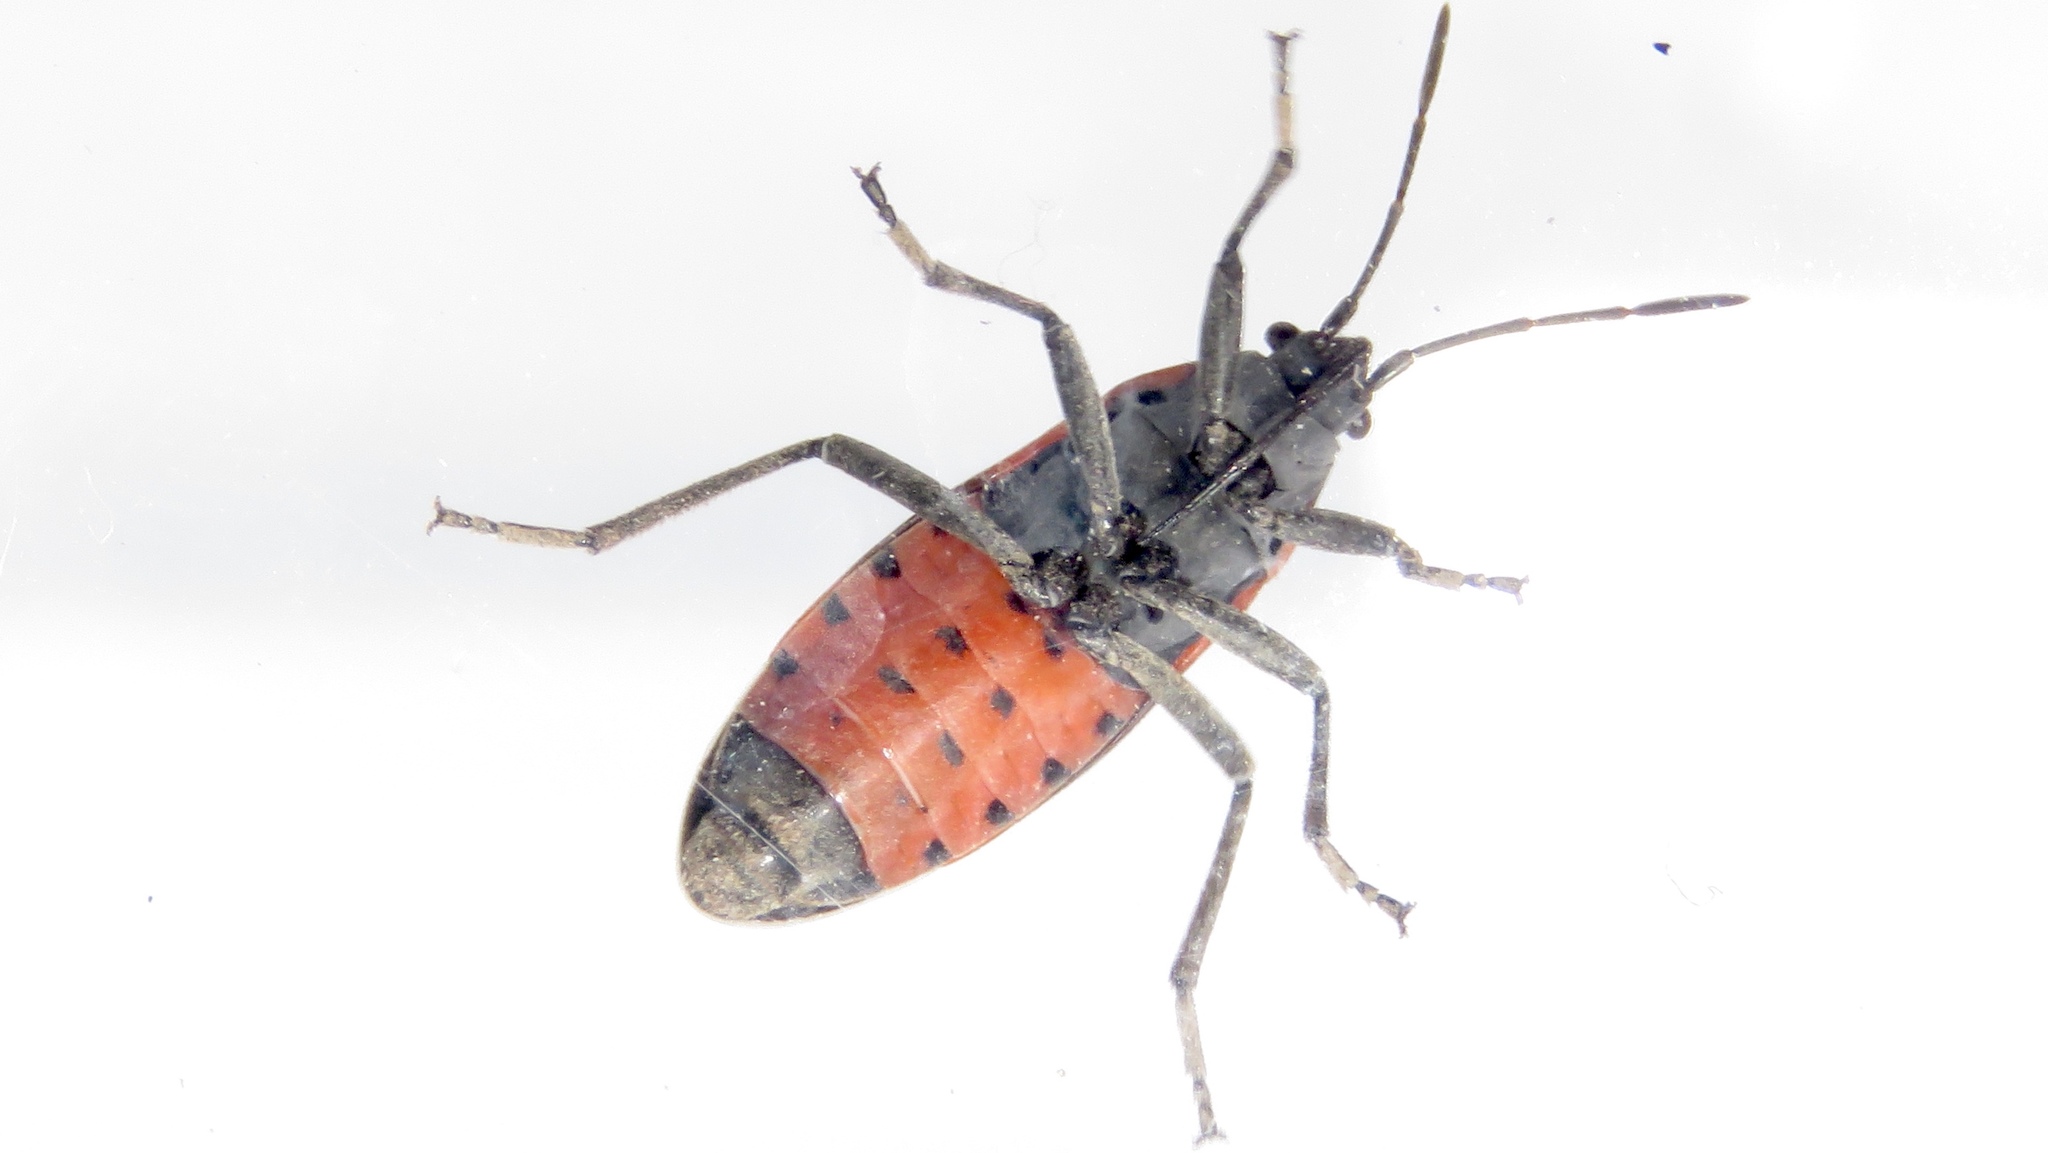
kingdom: Animalia
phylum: Arthropoda
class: Insecta
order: Hemiptera
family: Lygaeidae
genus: Lygaeus
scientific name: Lygaeus kalmii
